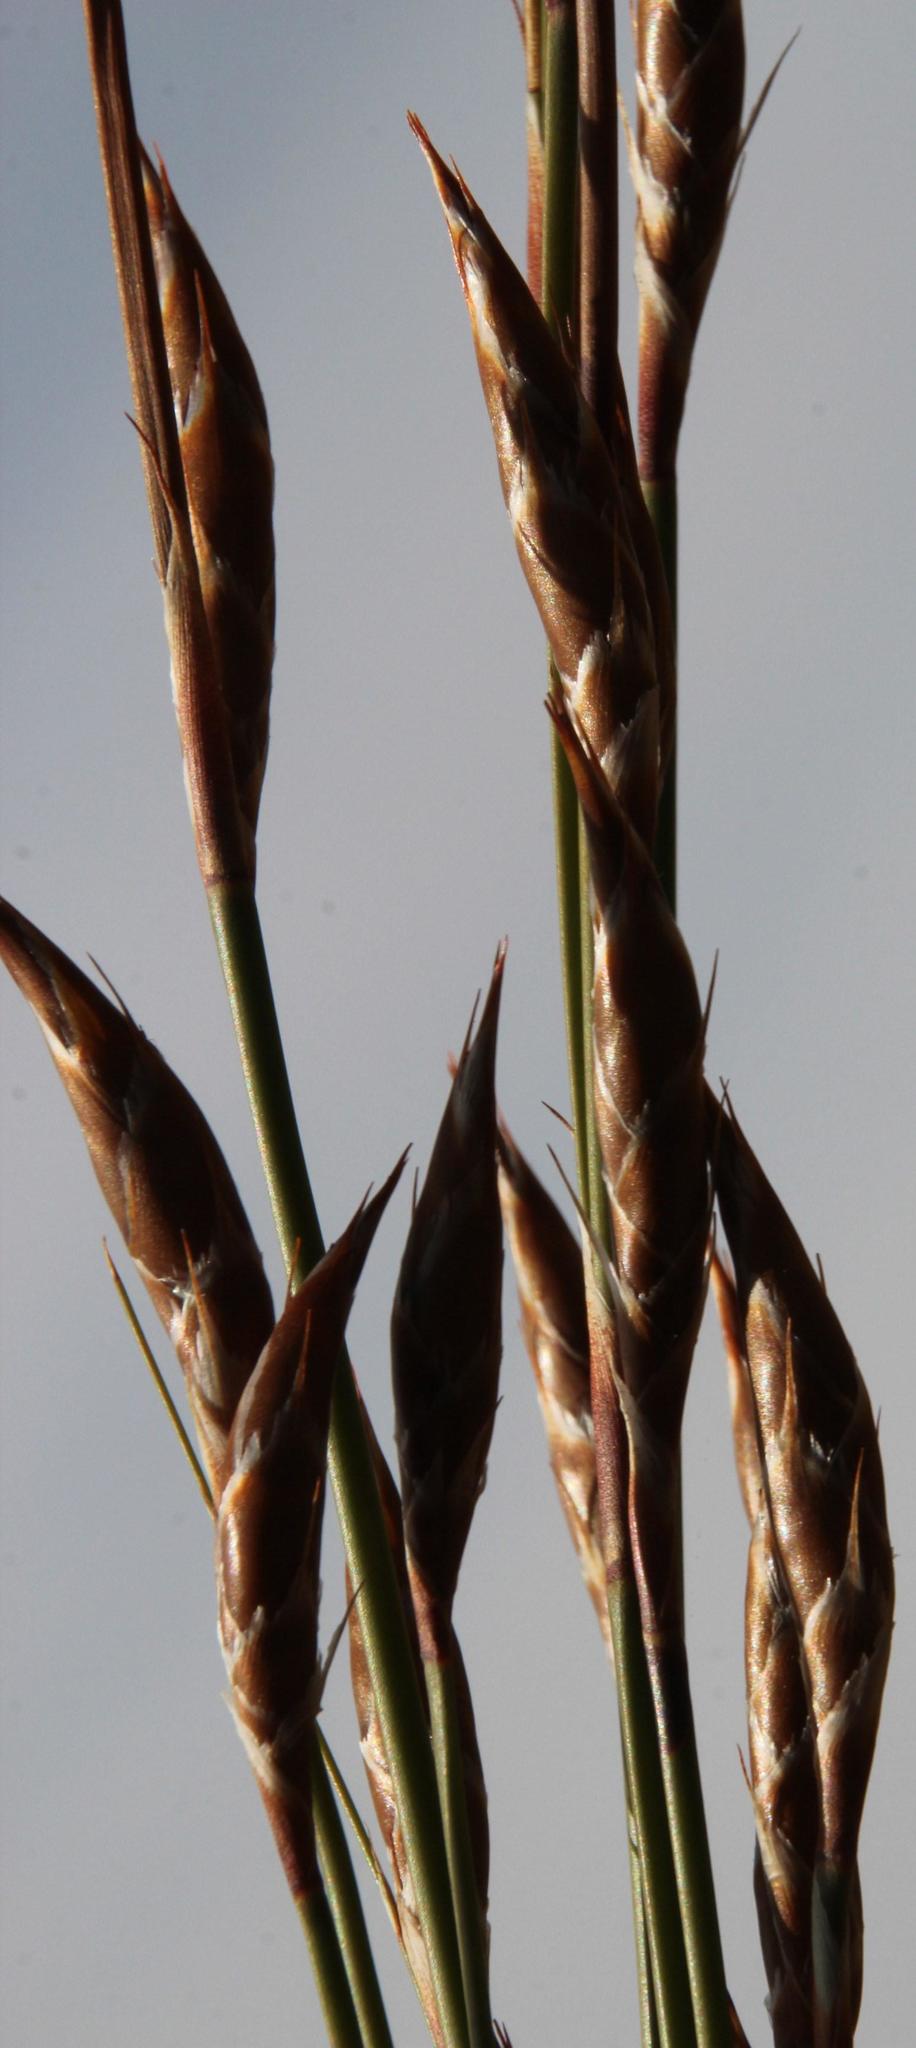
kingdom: Plantae
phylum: Tracheophyta
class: Liliopsida
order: Poales
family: Restionaceae
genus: Cannomois
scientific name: Cannomois robusta
